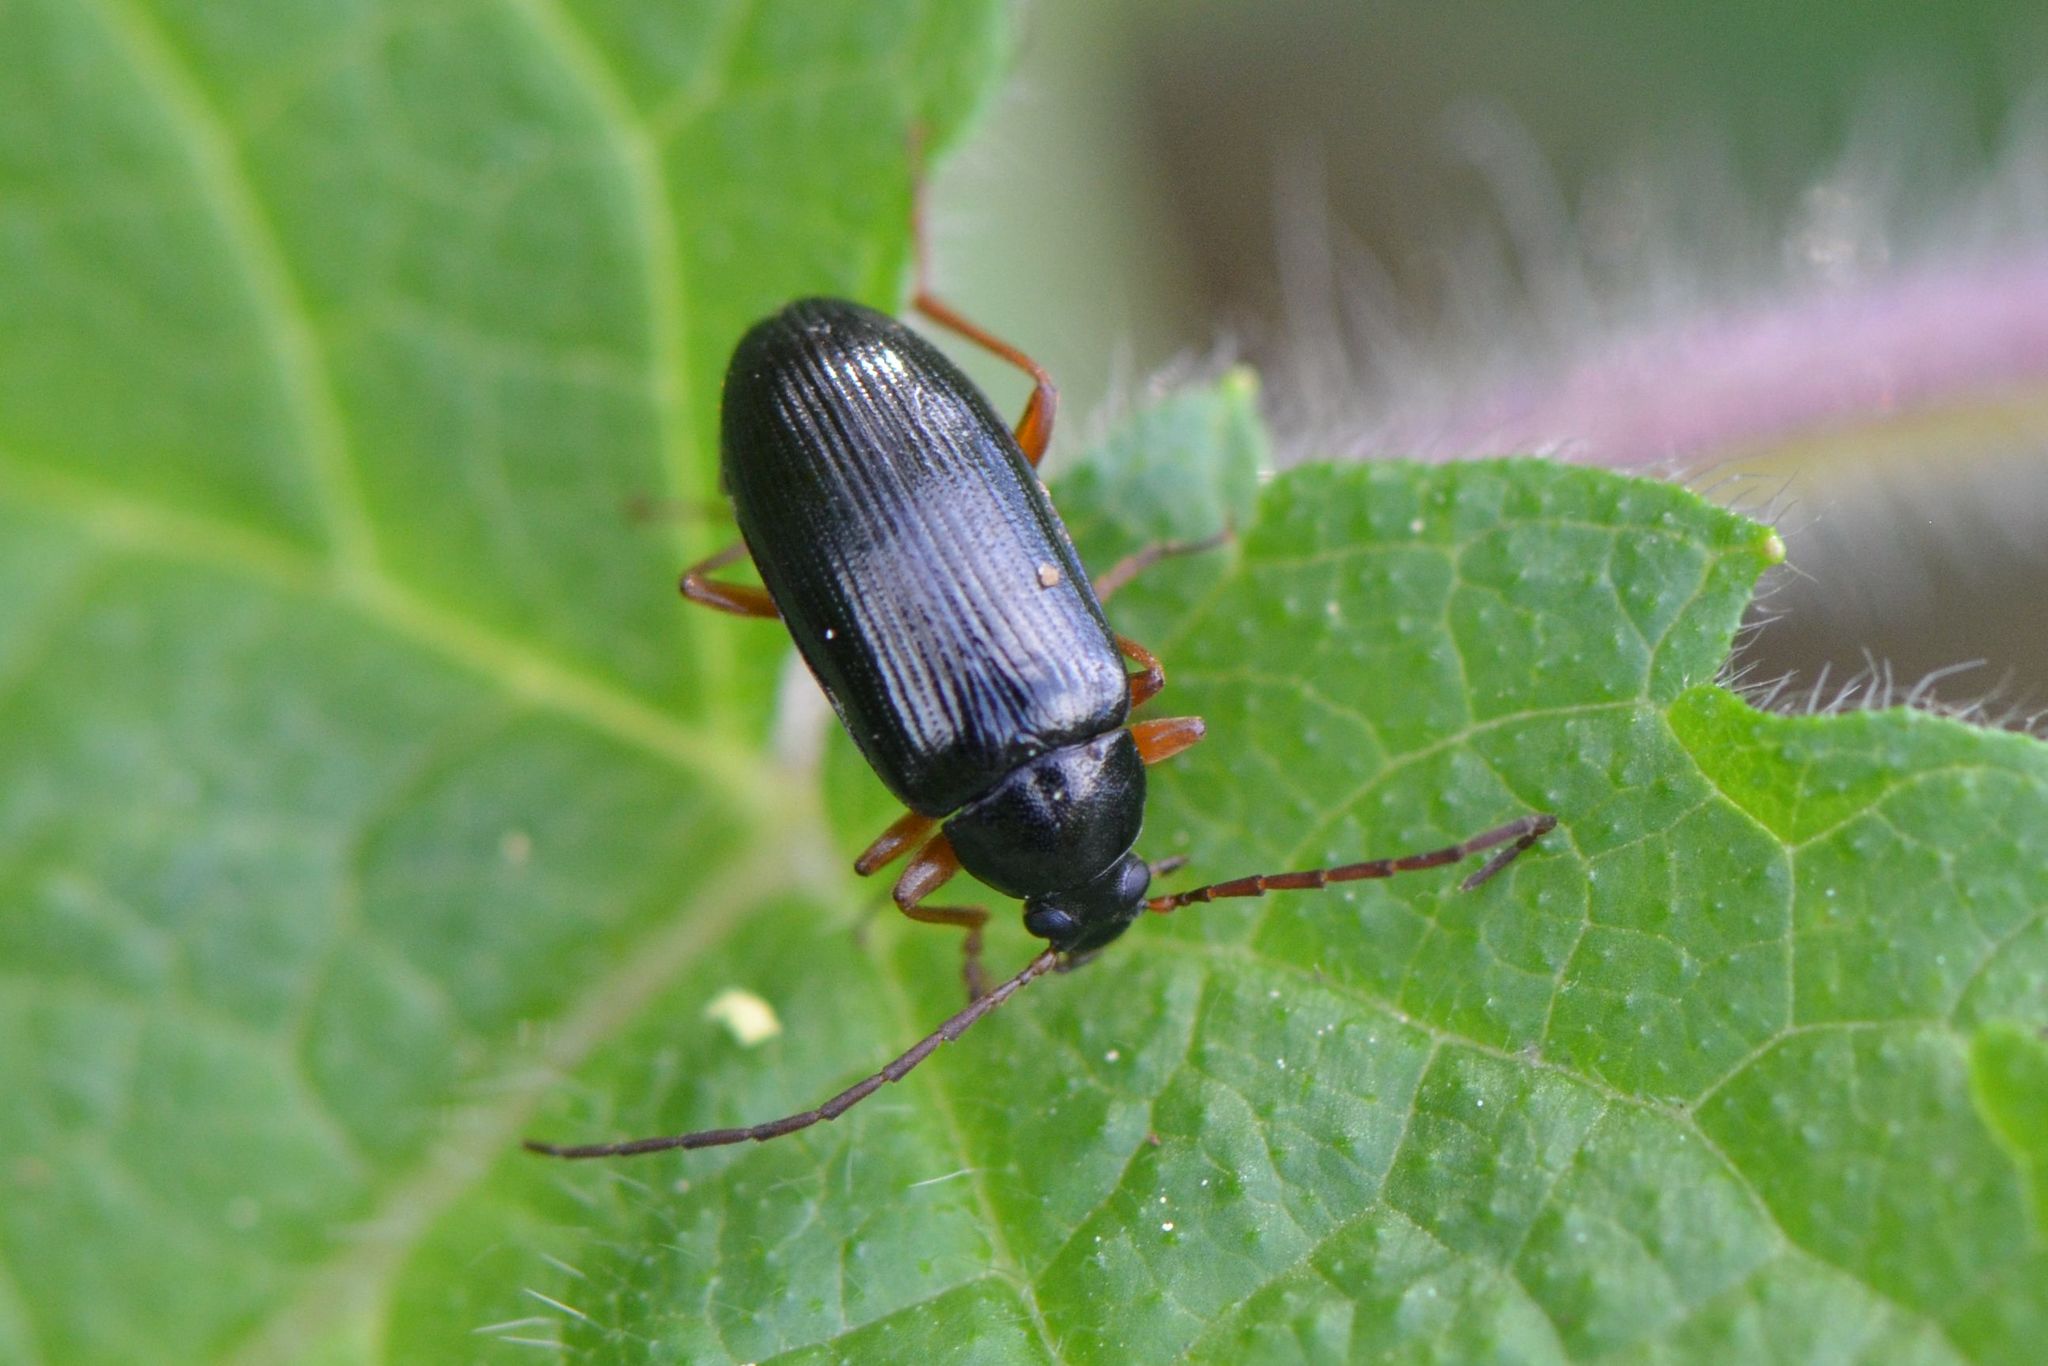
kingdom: Animalia
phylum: Arthropoda
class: Insecta
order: Coleoptera
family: Tenebrionidae
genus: Gonodera
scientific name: Gonodera luperus
